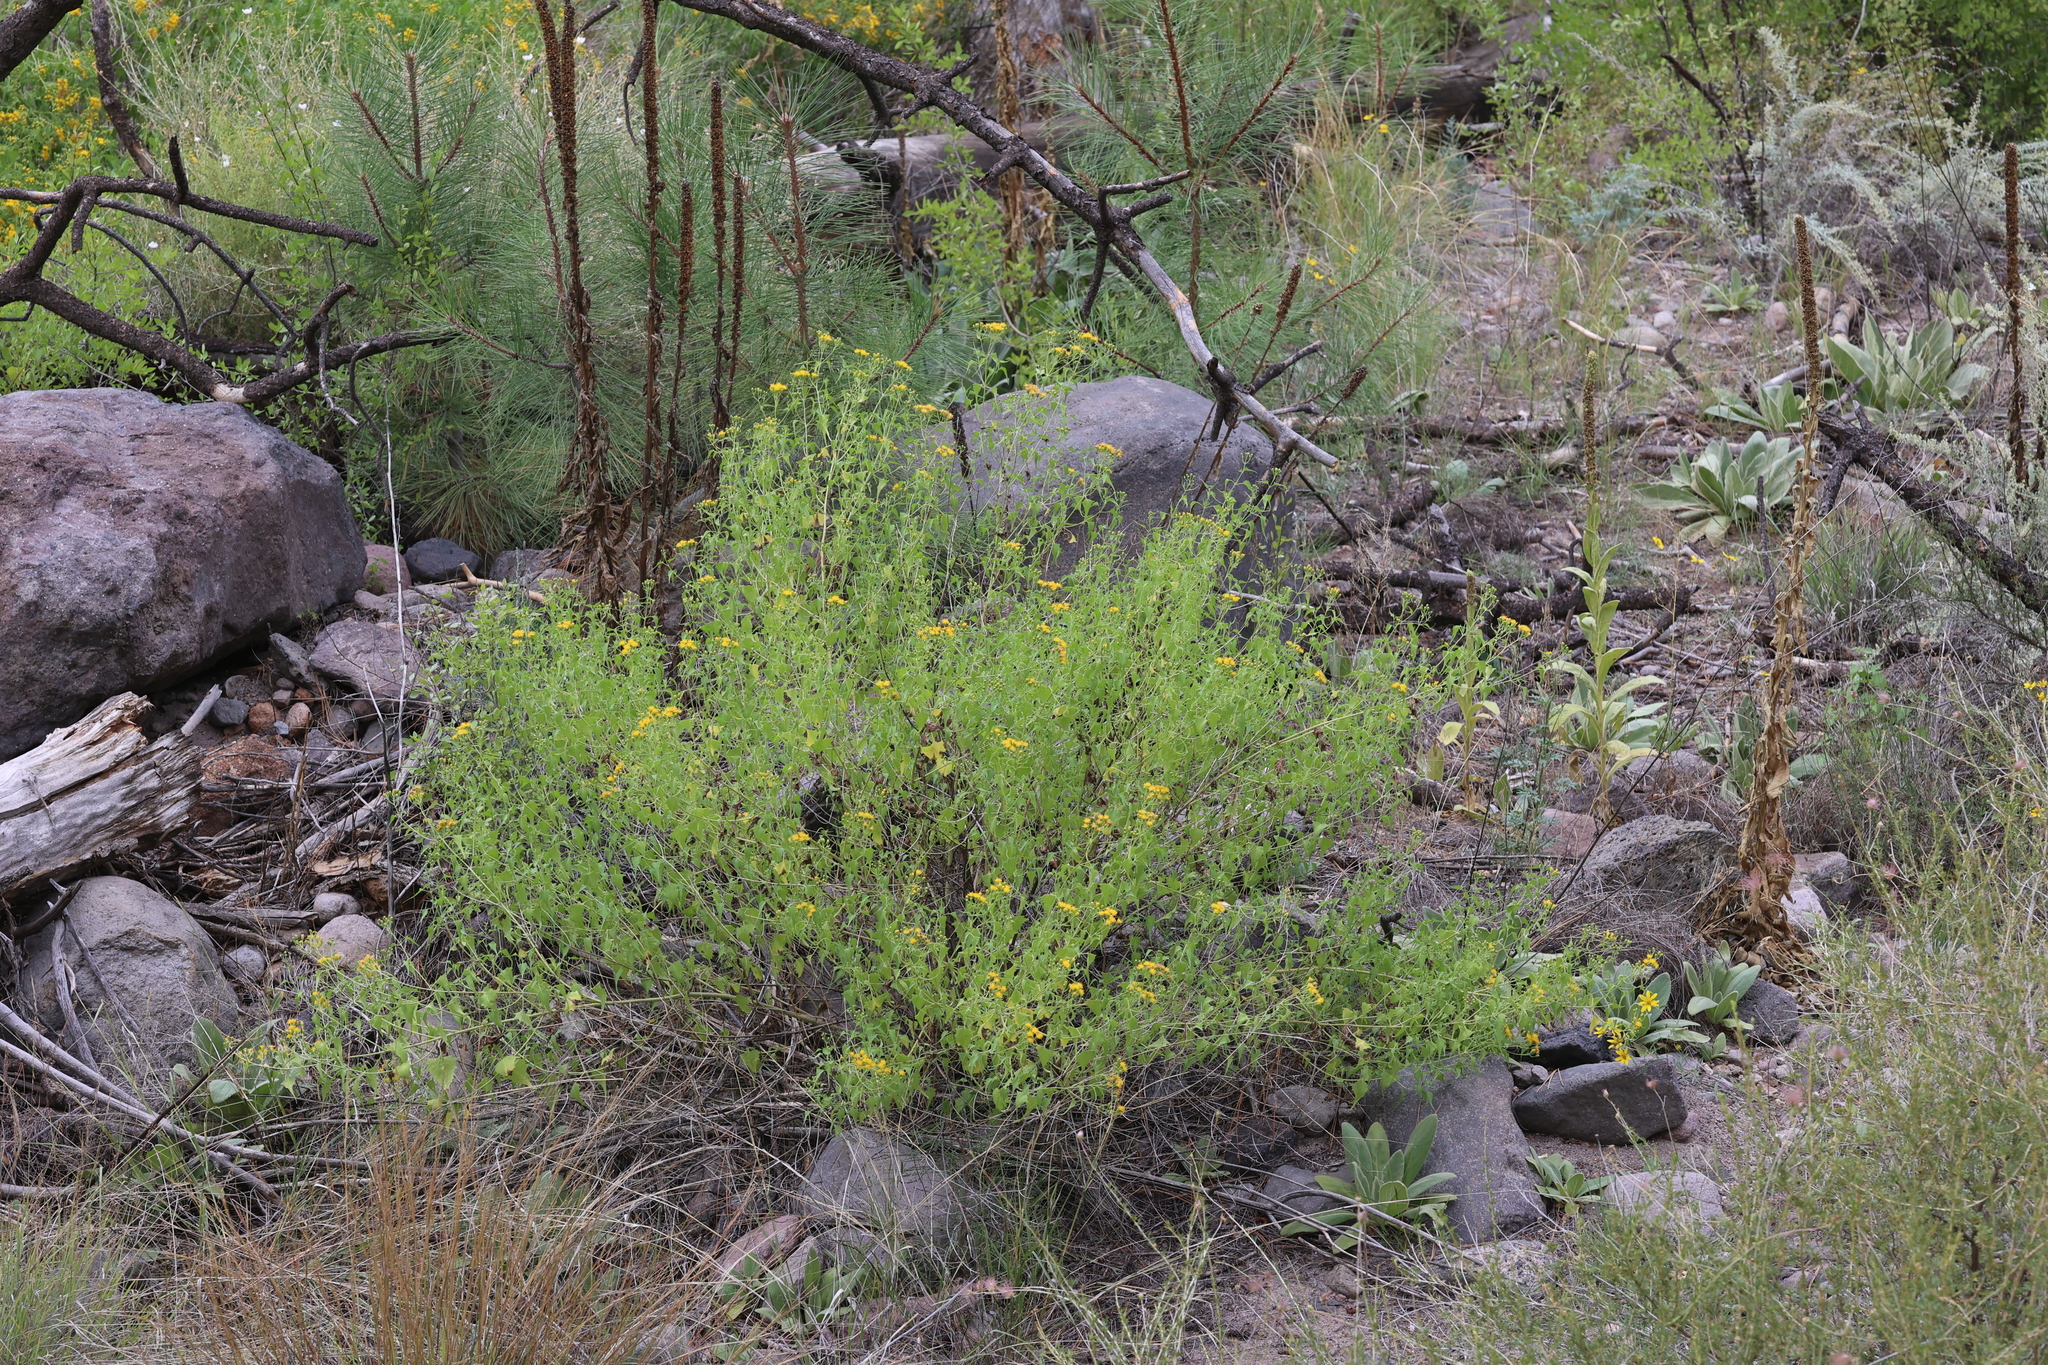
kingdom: Plantae
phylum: Tracheophyta
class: Magnoliopsida
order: Asterales
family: Asteraceae
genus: Pericome
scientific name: Pericome caudata
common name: Taperleaf
